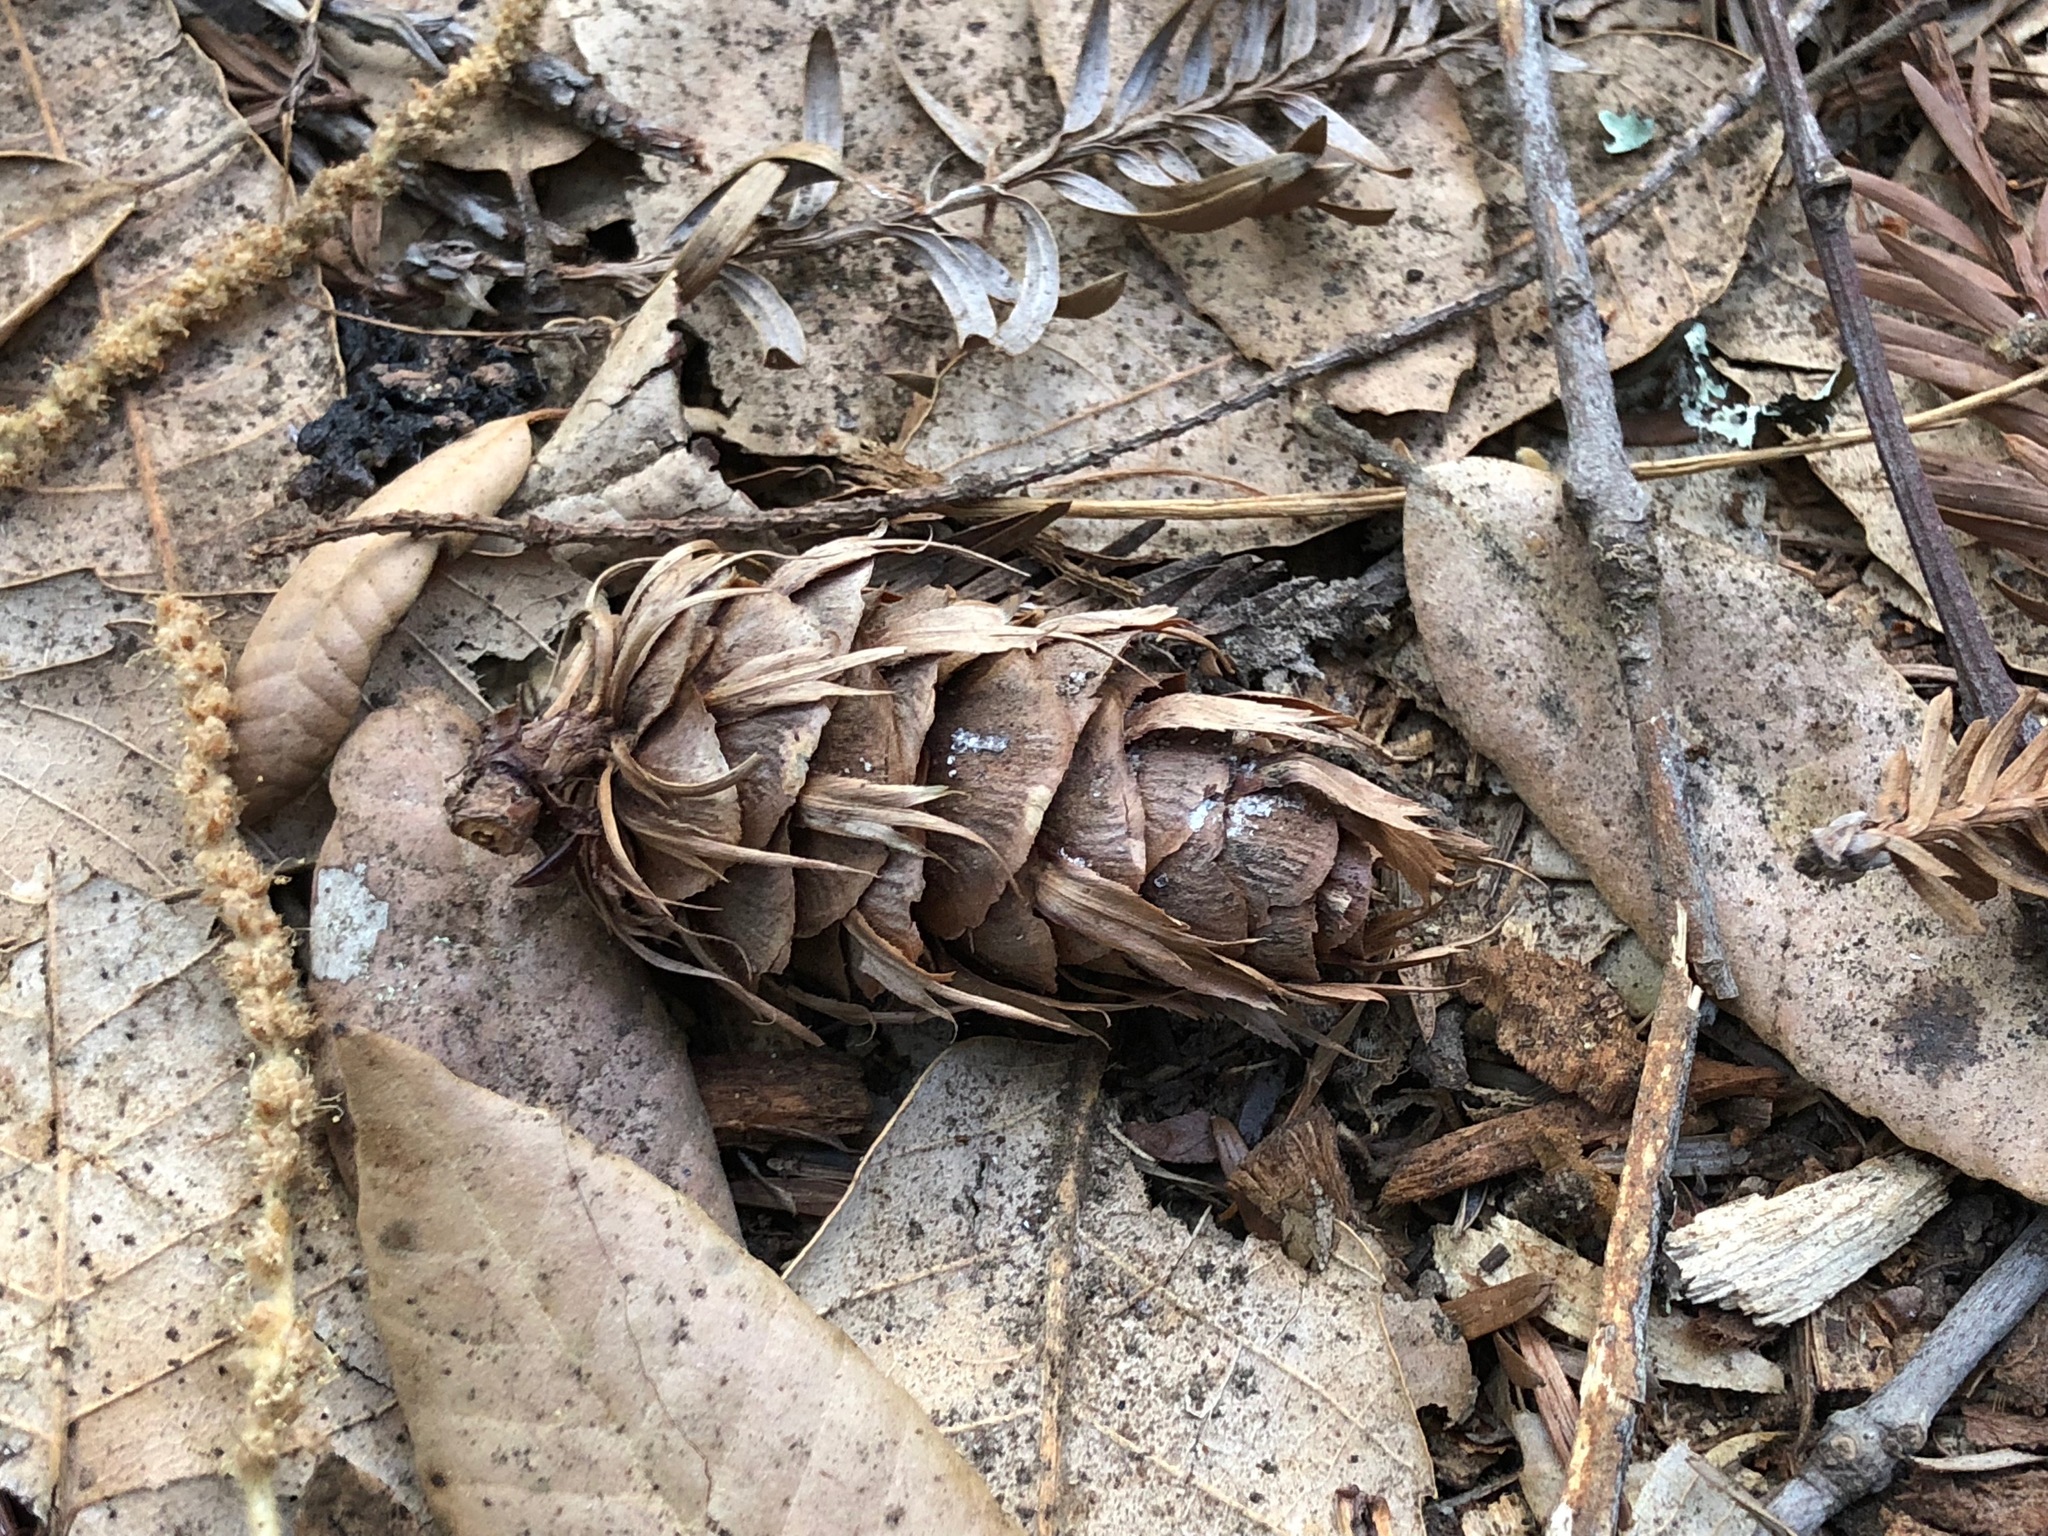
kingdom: Plantae
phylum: Tracheophyta
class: Pinopsida
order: Pinales
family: Pinaceae
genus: Pseudotsuga
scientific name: Pseudotsuga menziesii
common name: Douglas fir
